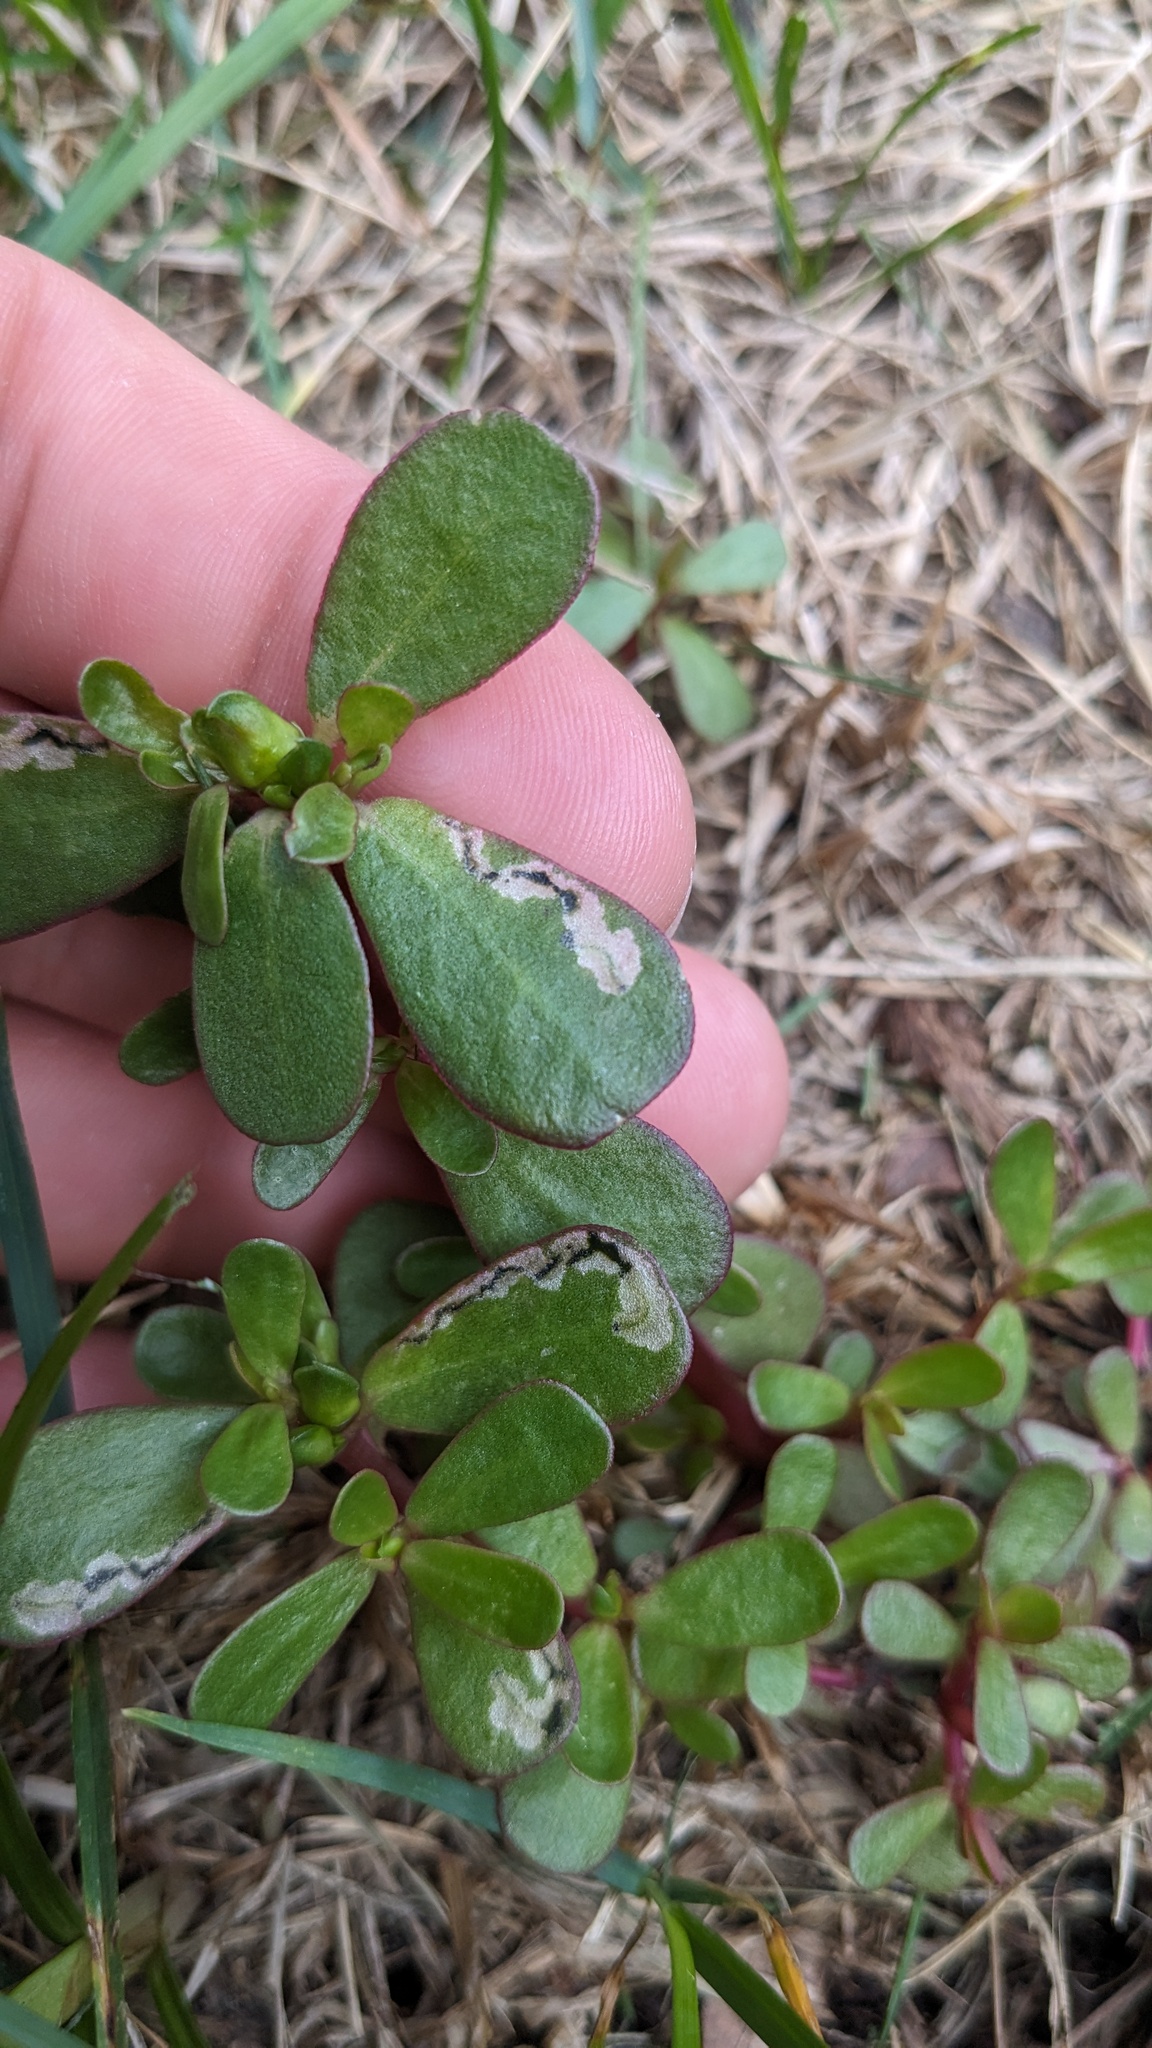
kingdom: Animalia
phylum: Arthropoda
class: Insecta
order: Hymenoptera
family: Argidae
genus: Schizocerella
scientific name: Schizocerella pilicornis
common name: Purslane sawfly
